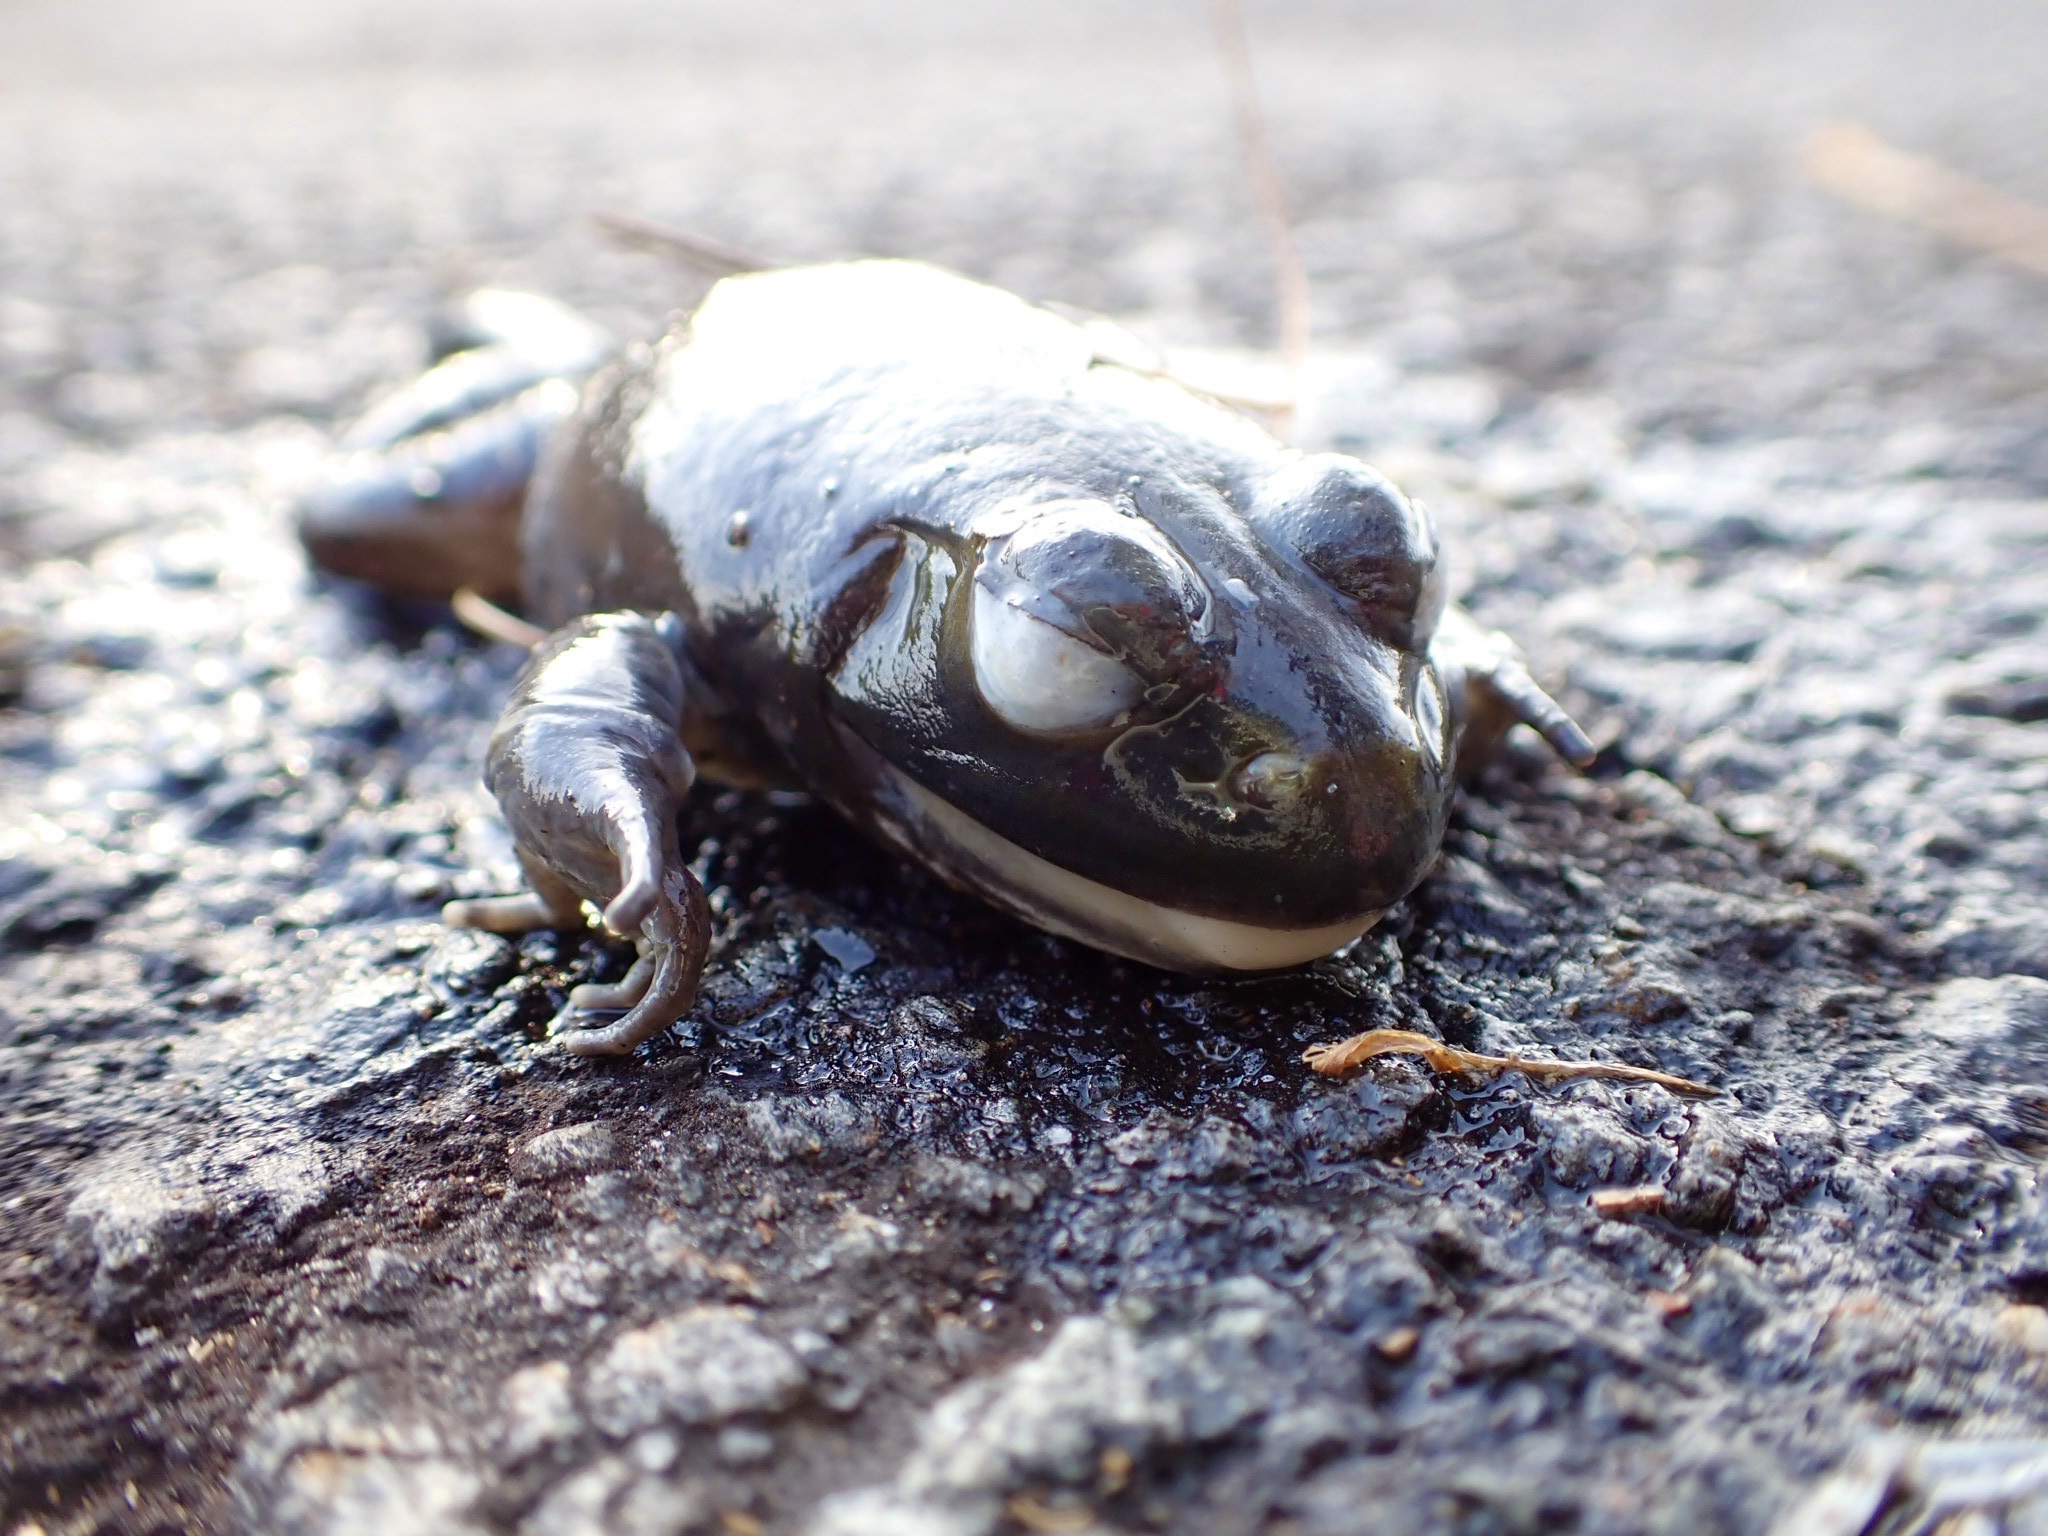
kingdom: Animalia
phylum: Chordata
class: Amphibia
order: Anura
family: Ranidae
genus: Lithobates
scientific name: Lithobates catesbeianus
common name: American bullfrog
